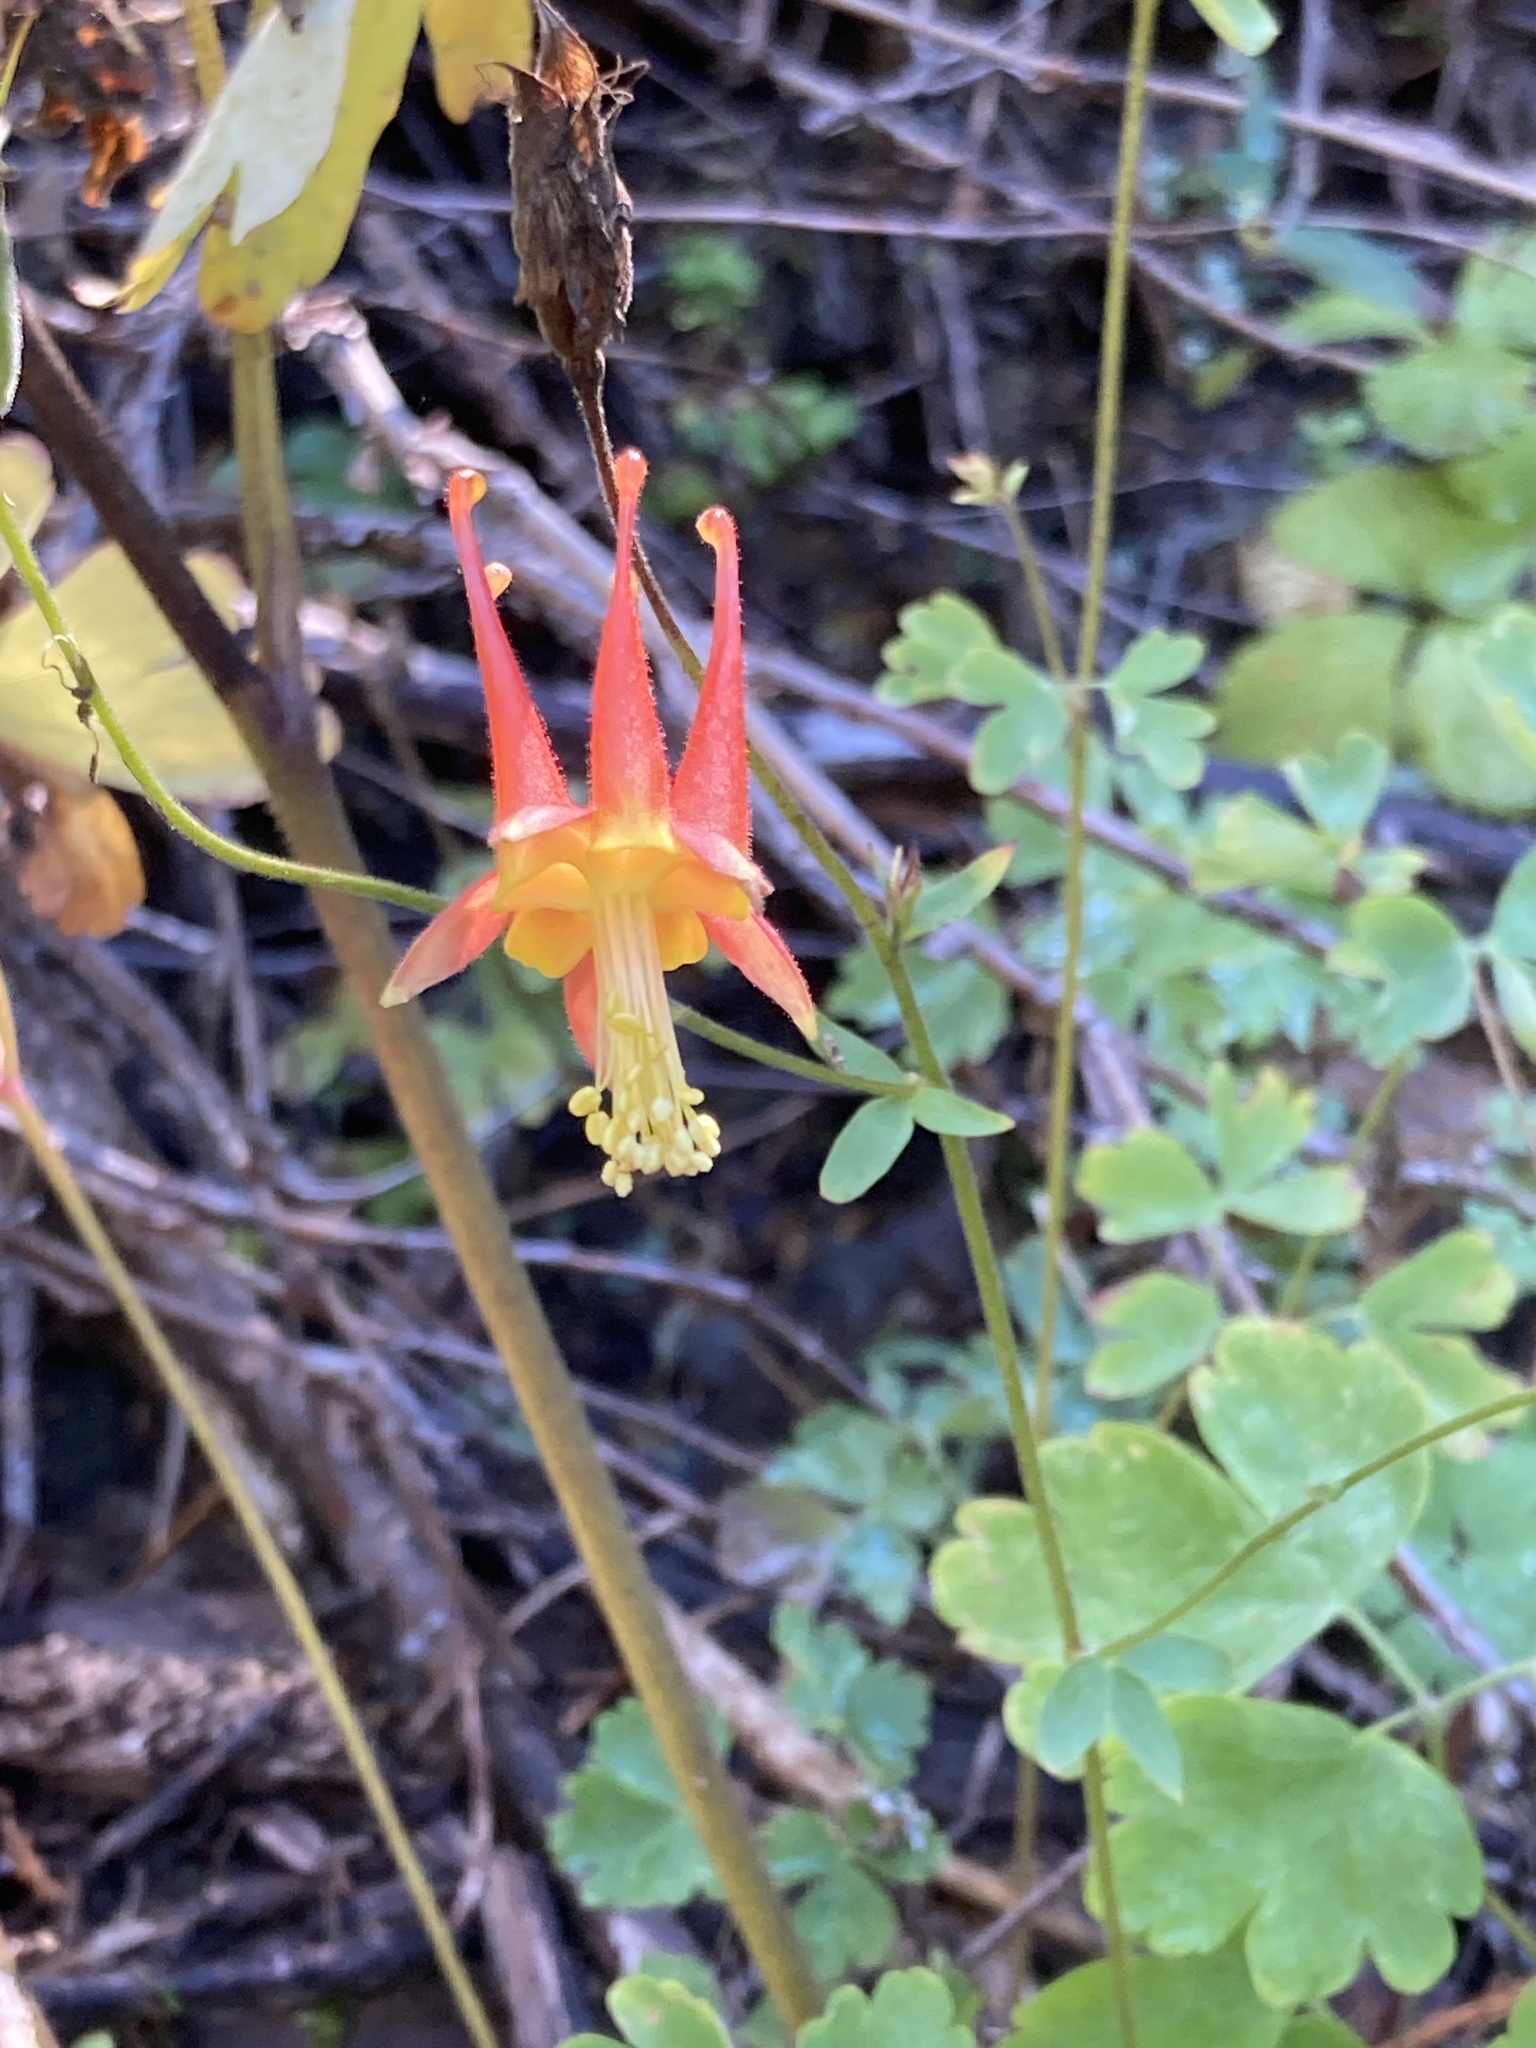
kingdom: Plantae
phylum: Tracheophyta
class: Magnoliopsida
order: Ranunculales
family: Ranunculaceae
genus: Aquilegia
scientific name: Aquilegia formosa
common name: Sitka columbine
